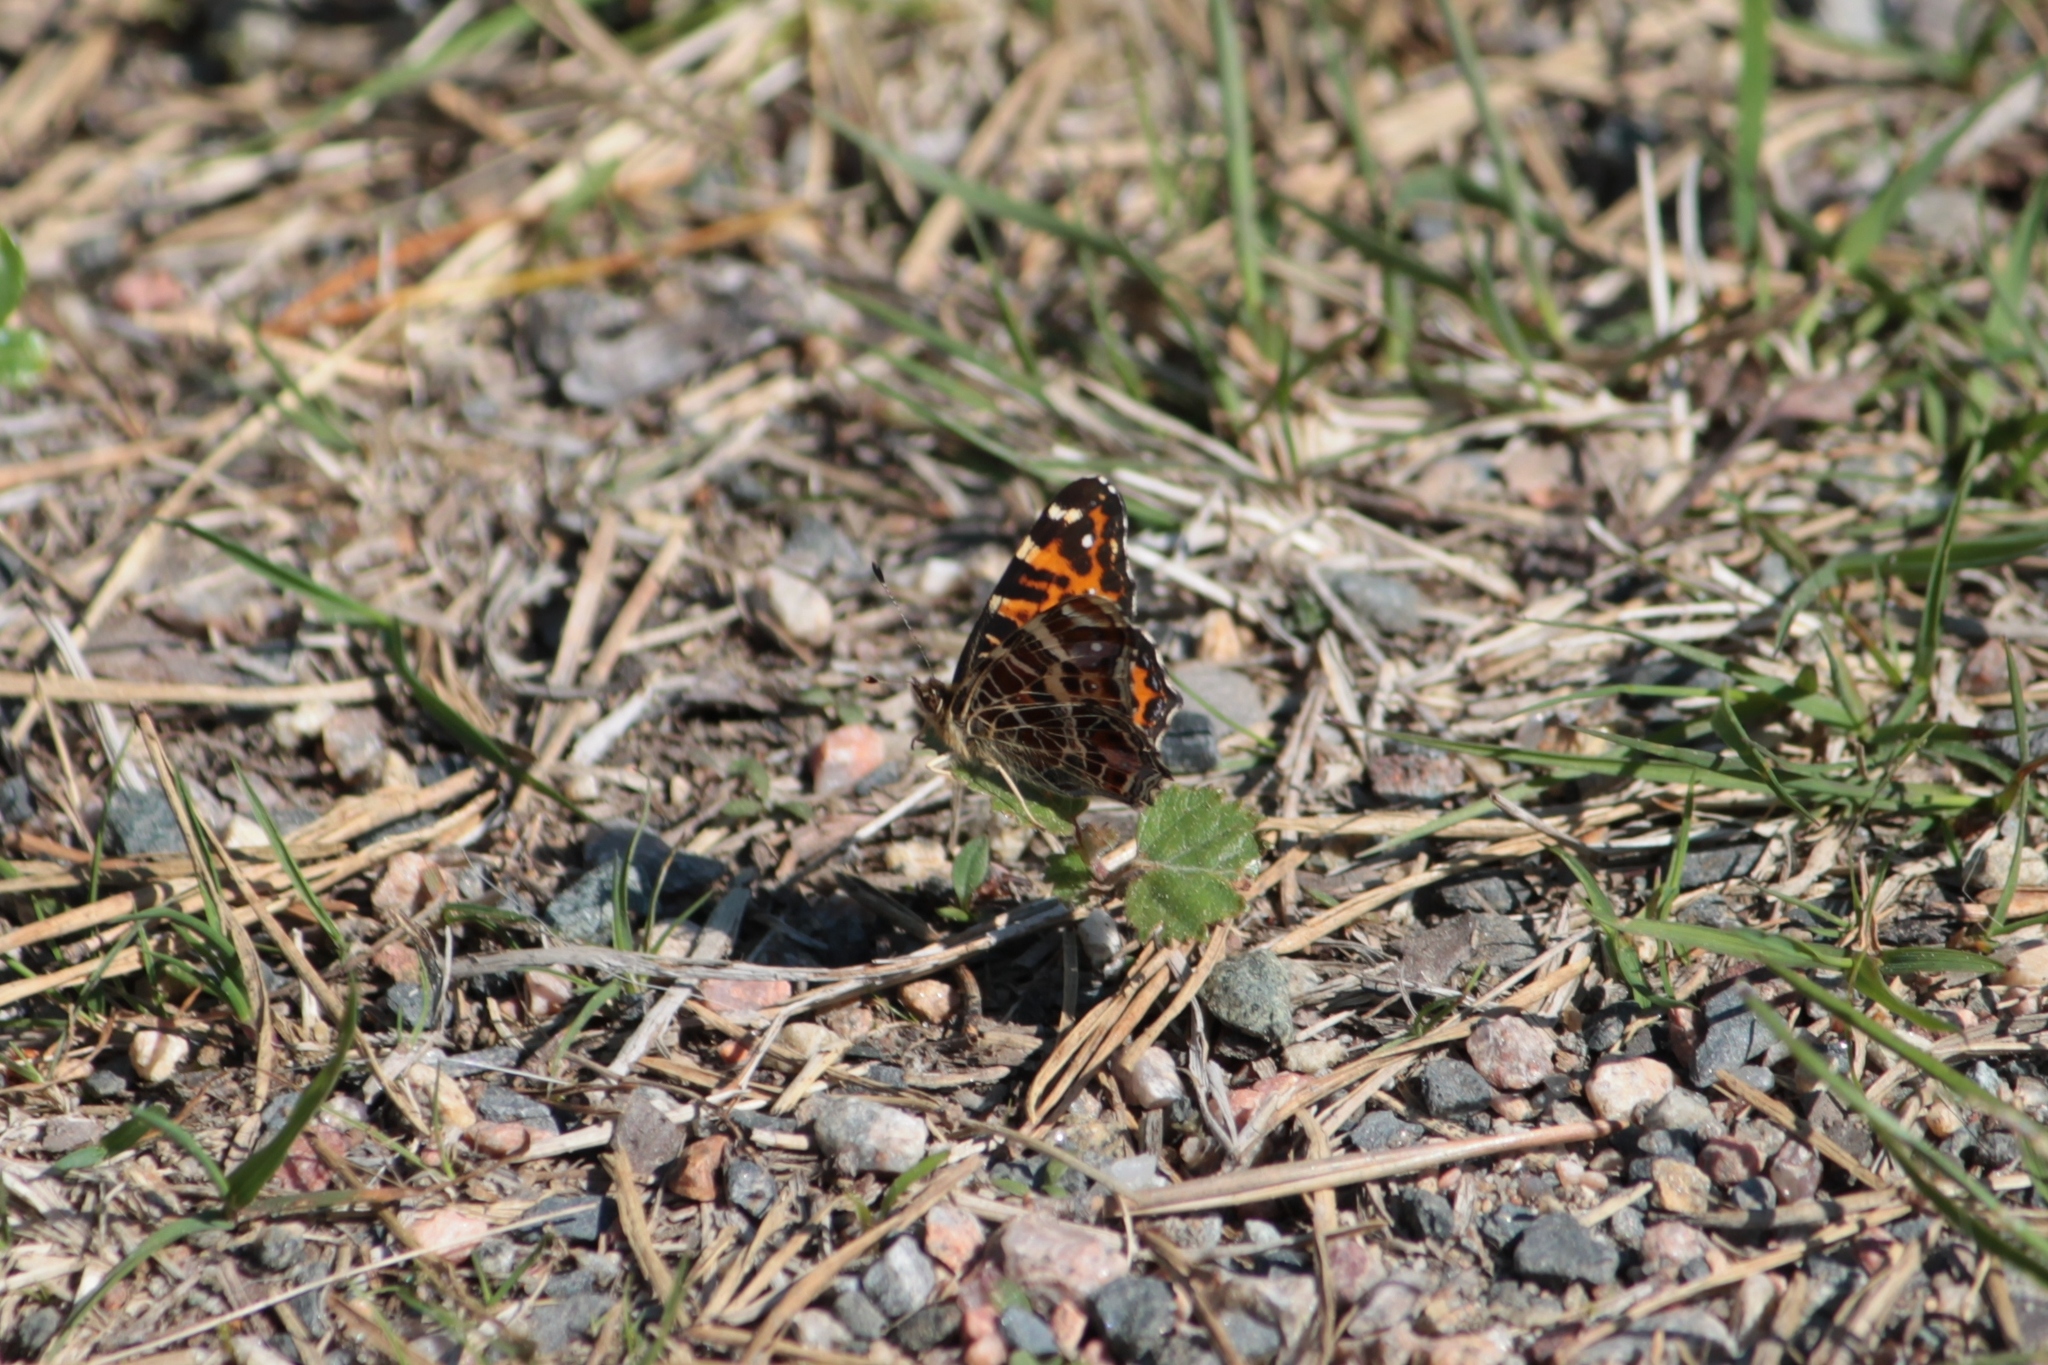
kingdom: Animalia
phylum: Arthropoda
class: Insecta
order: Lepidoptera
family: Nymphalidae
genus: Araschnia
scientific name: Araschnia levana
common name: Map butterfly
